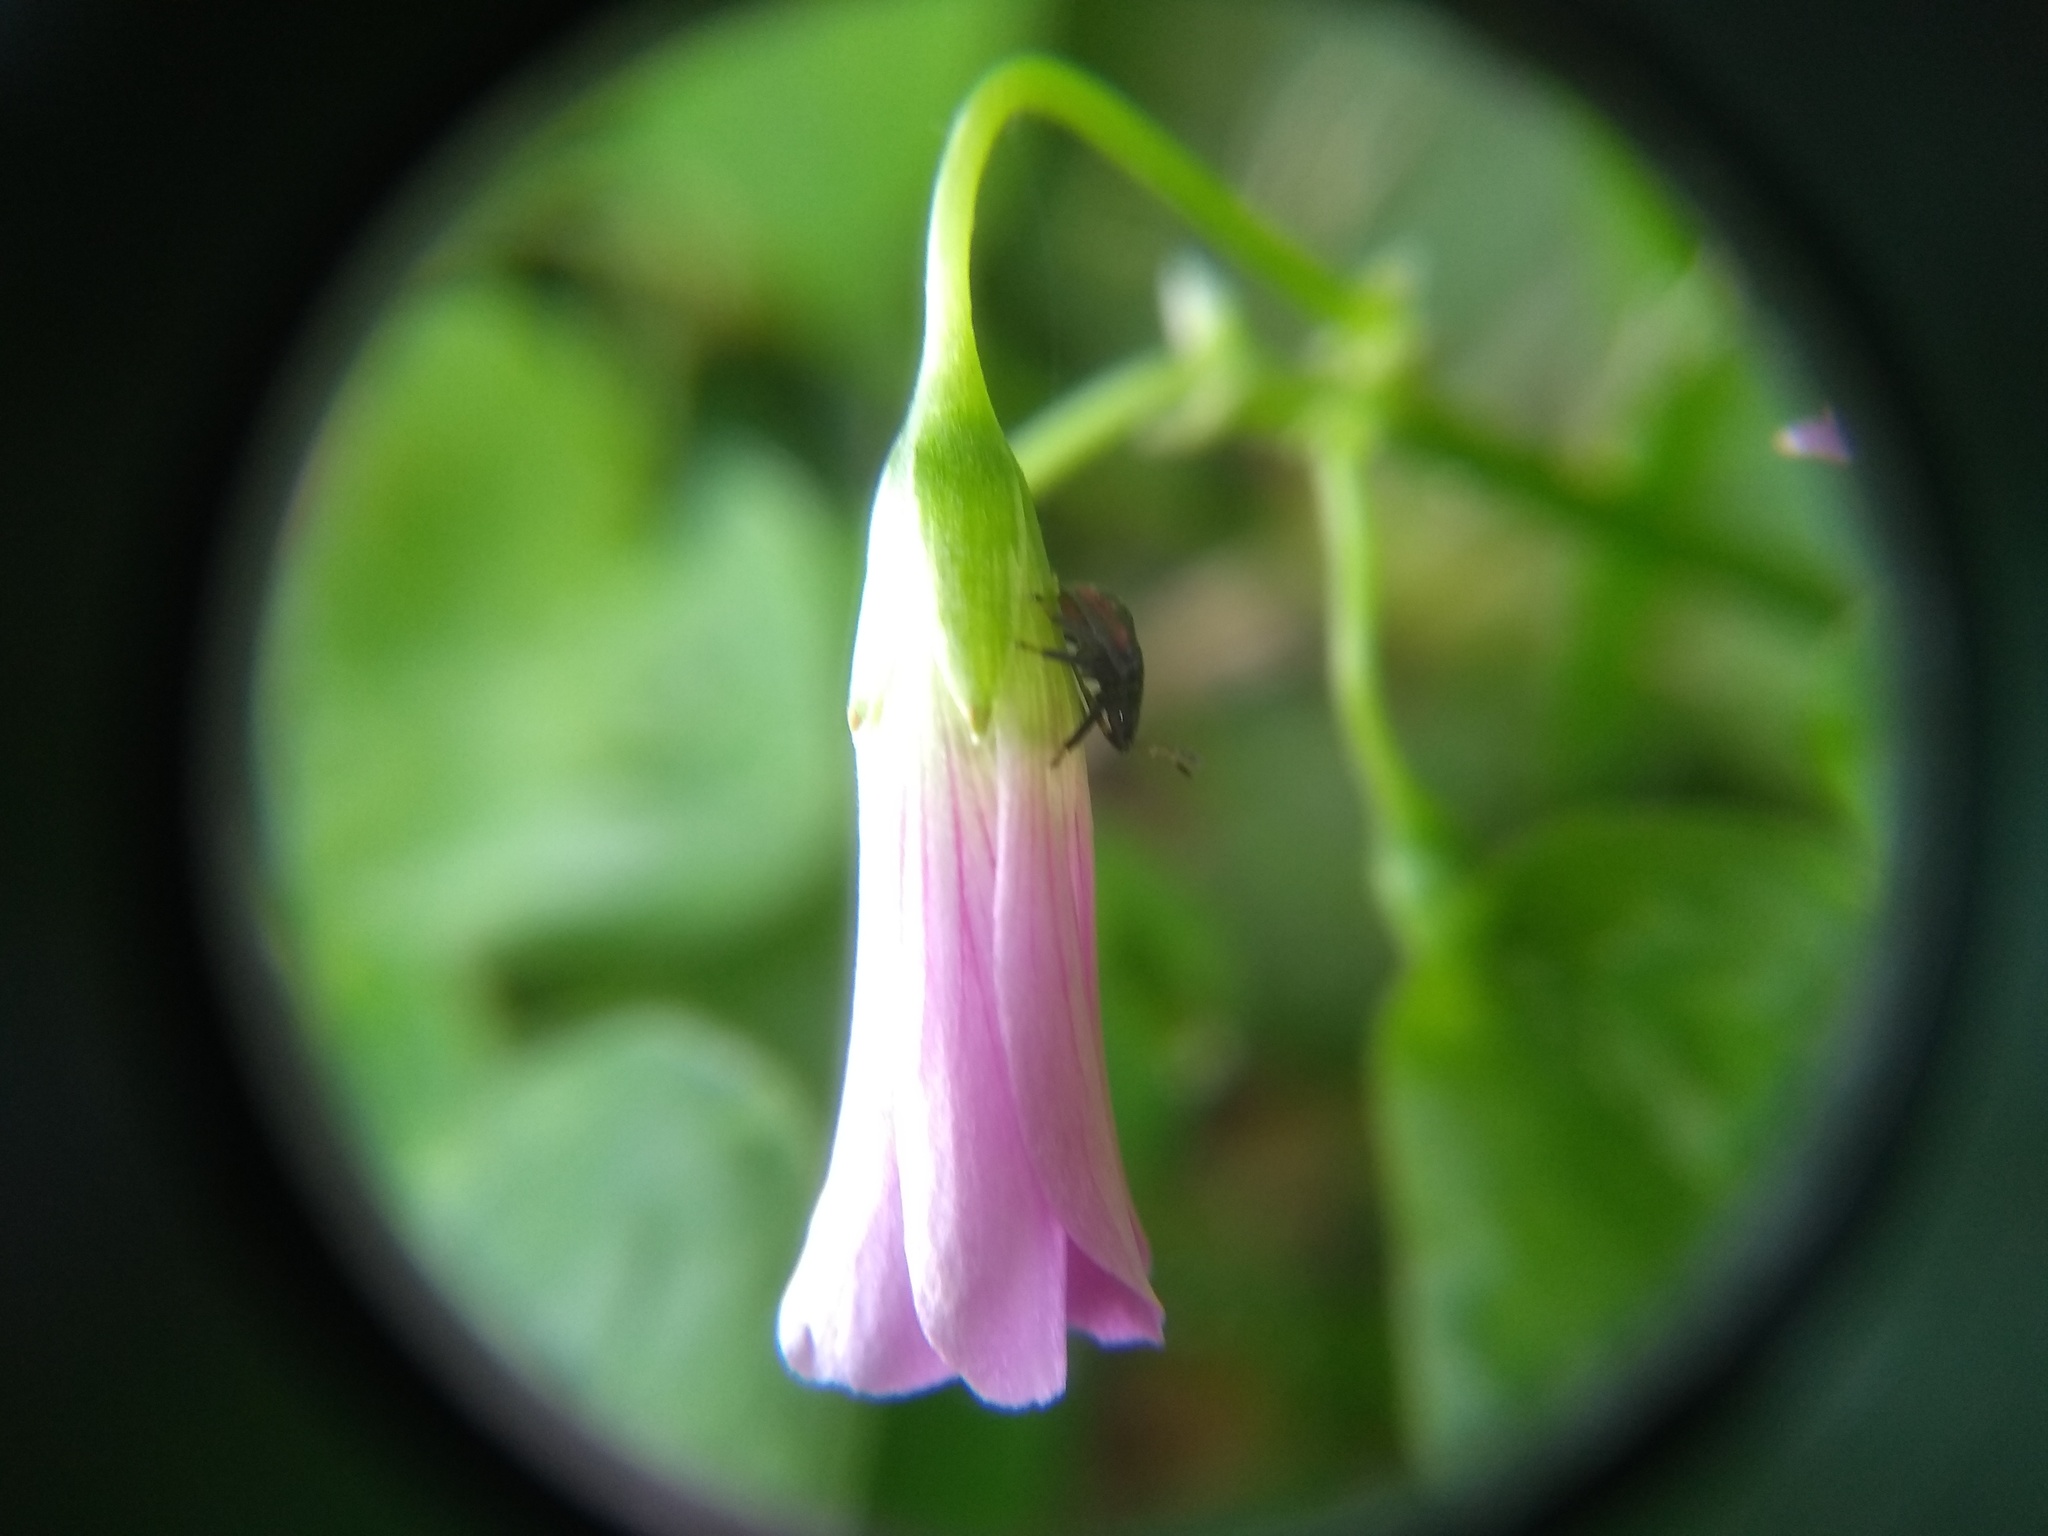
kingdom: Plantae
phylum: Tracheophyta
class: Magnoliopsida
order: Oxalidales
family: Oxalidaceae
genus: Oxalis
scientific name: Oxalis debilis
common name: Large-flowered pink-sorrel
